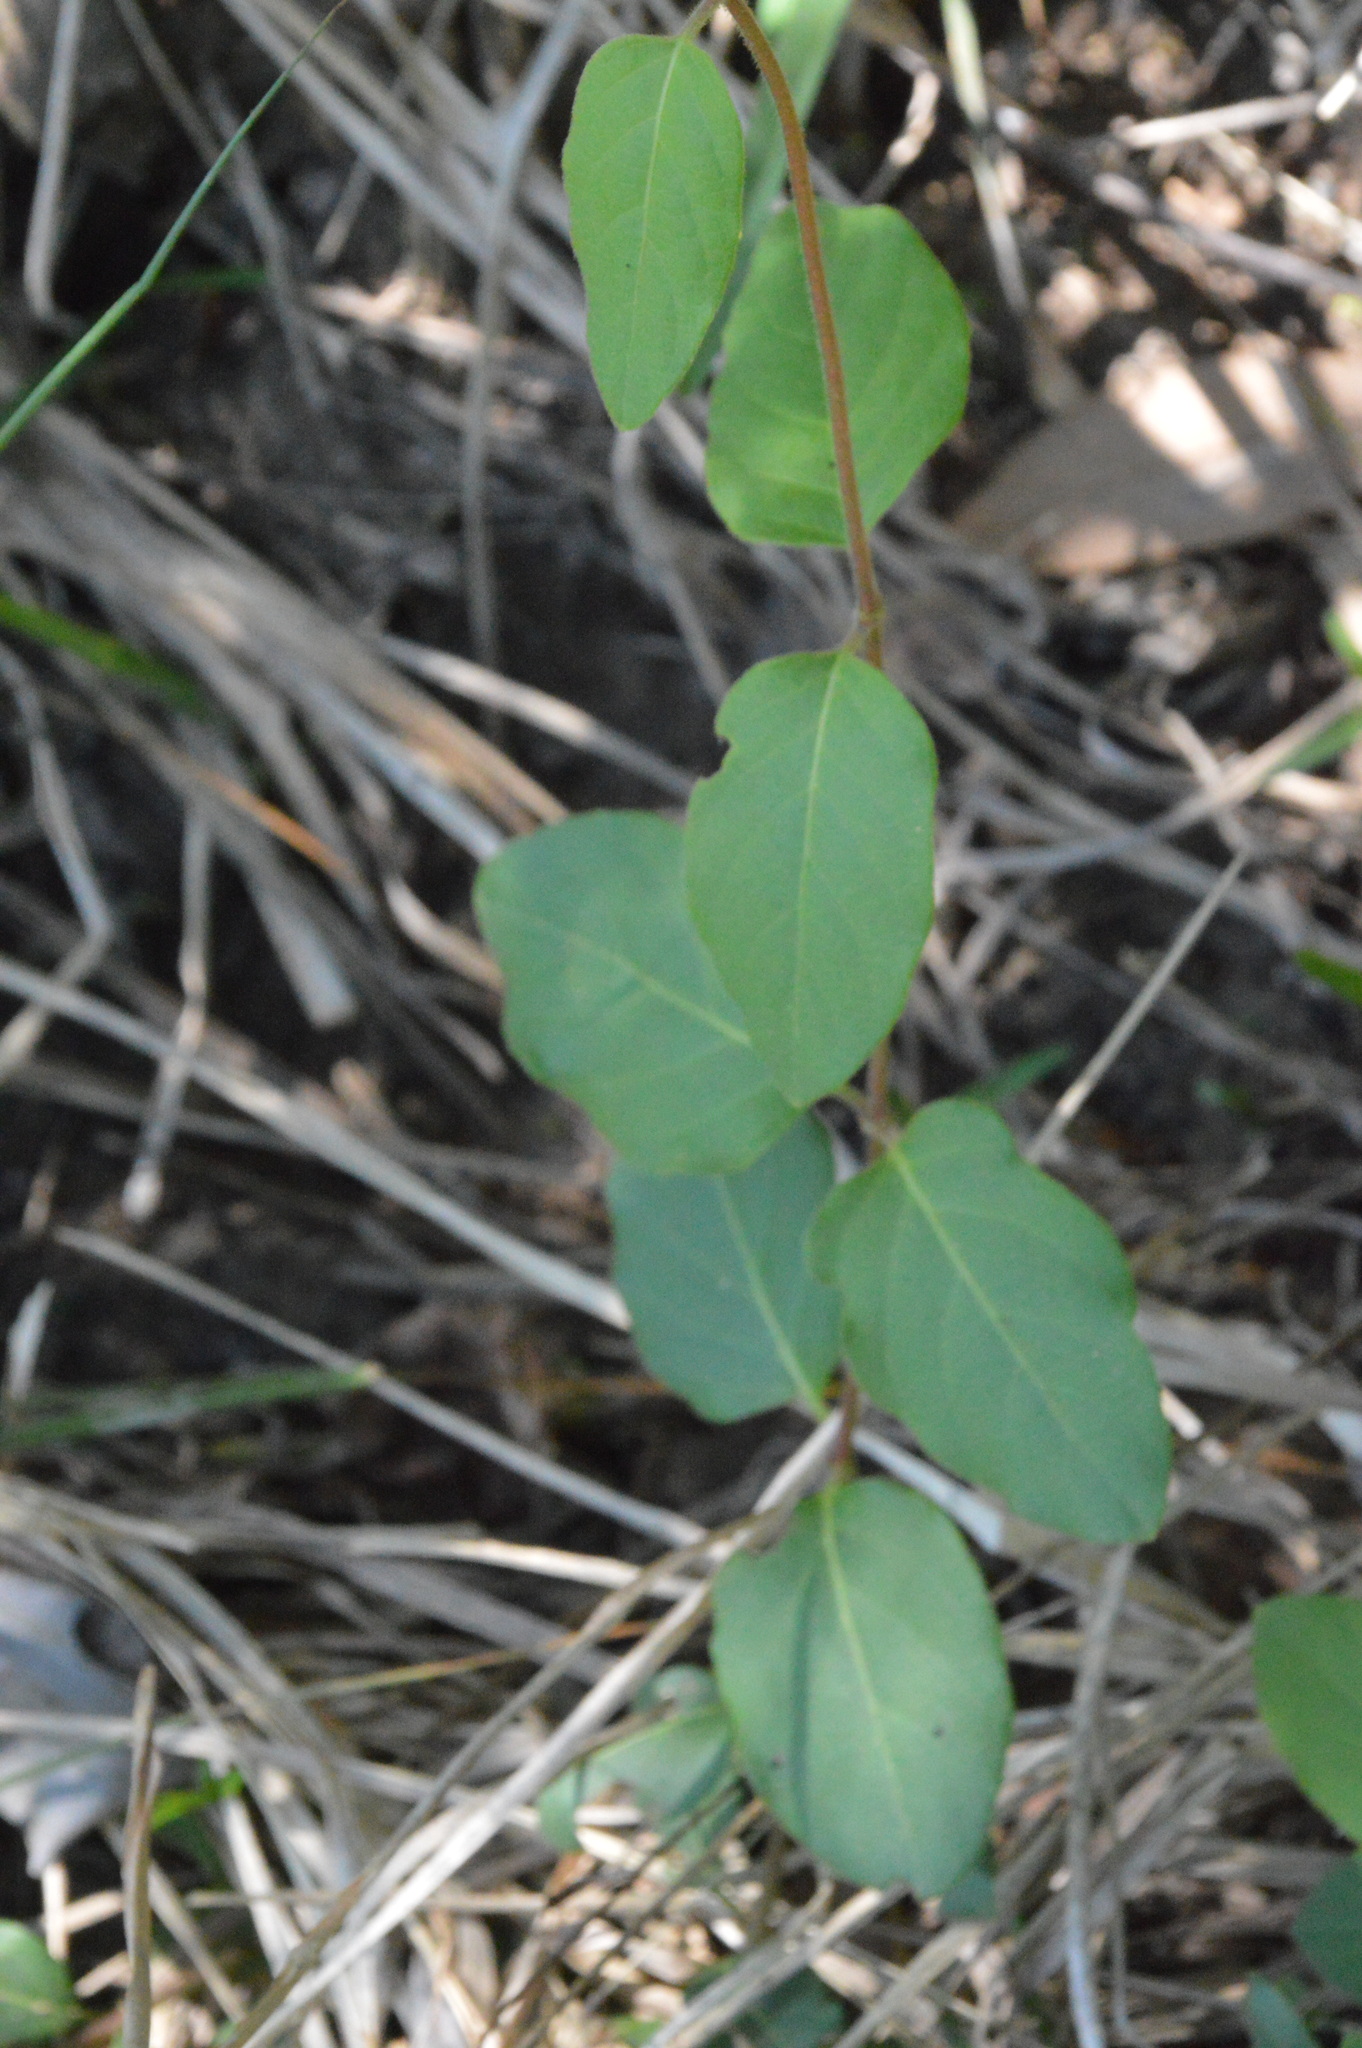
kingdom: Plantae
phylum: Tracheophyta
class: Magnoliopsida
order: Dipsacales
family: Caprifoliaceae
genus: Lonicera
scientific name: Lonicera japonica
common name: Japanese honeysuckle
